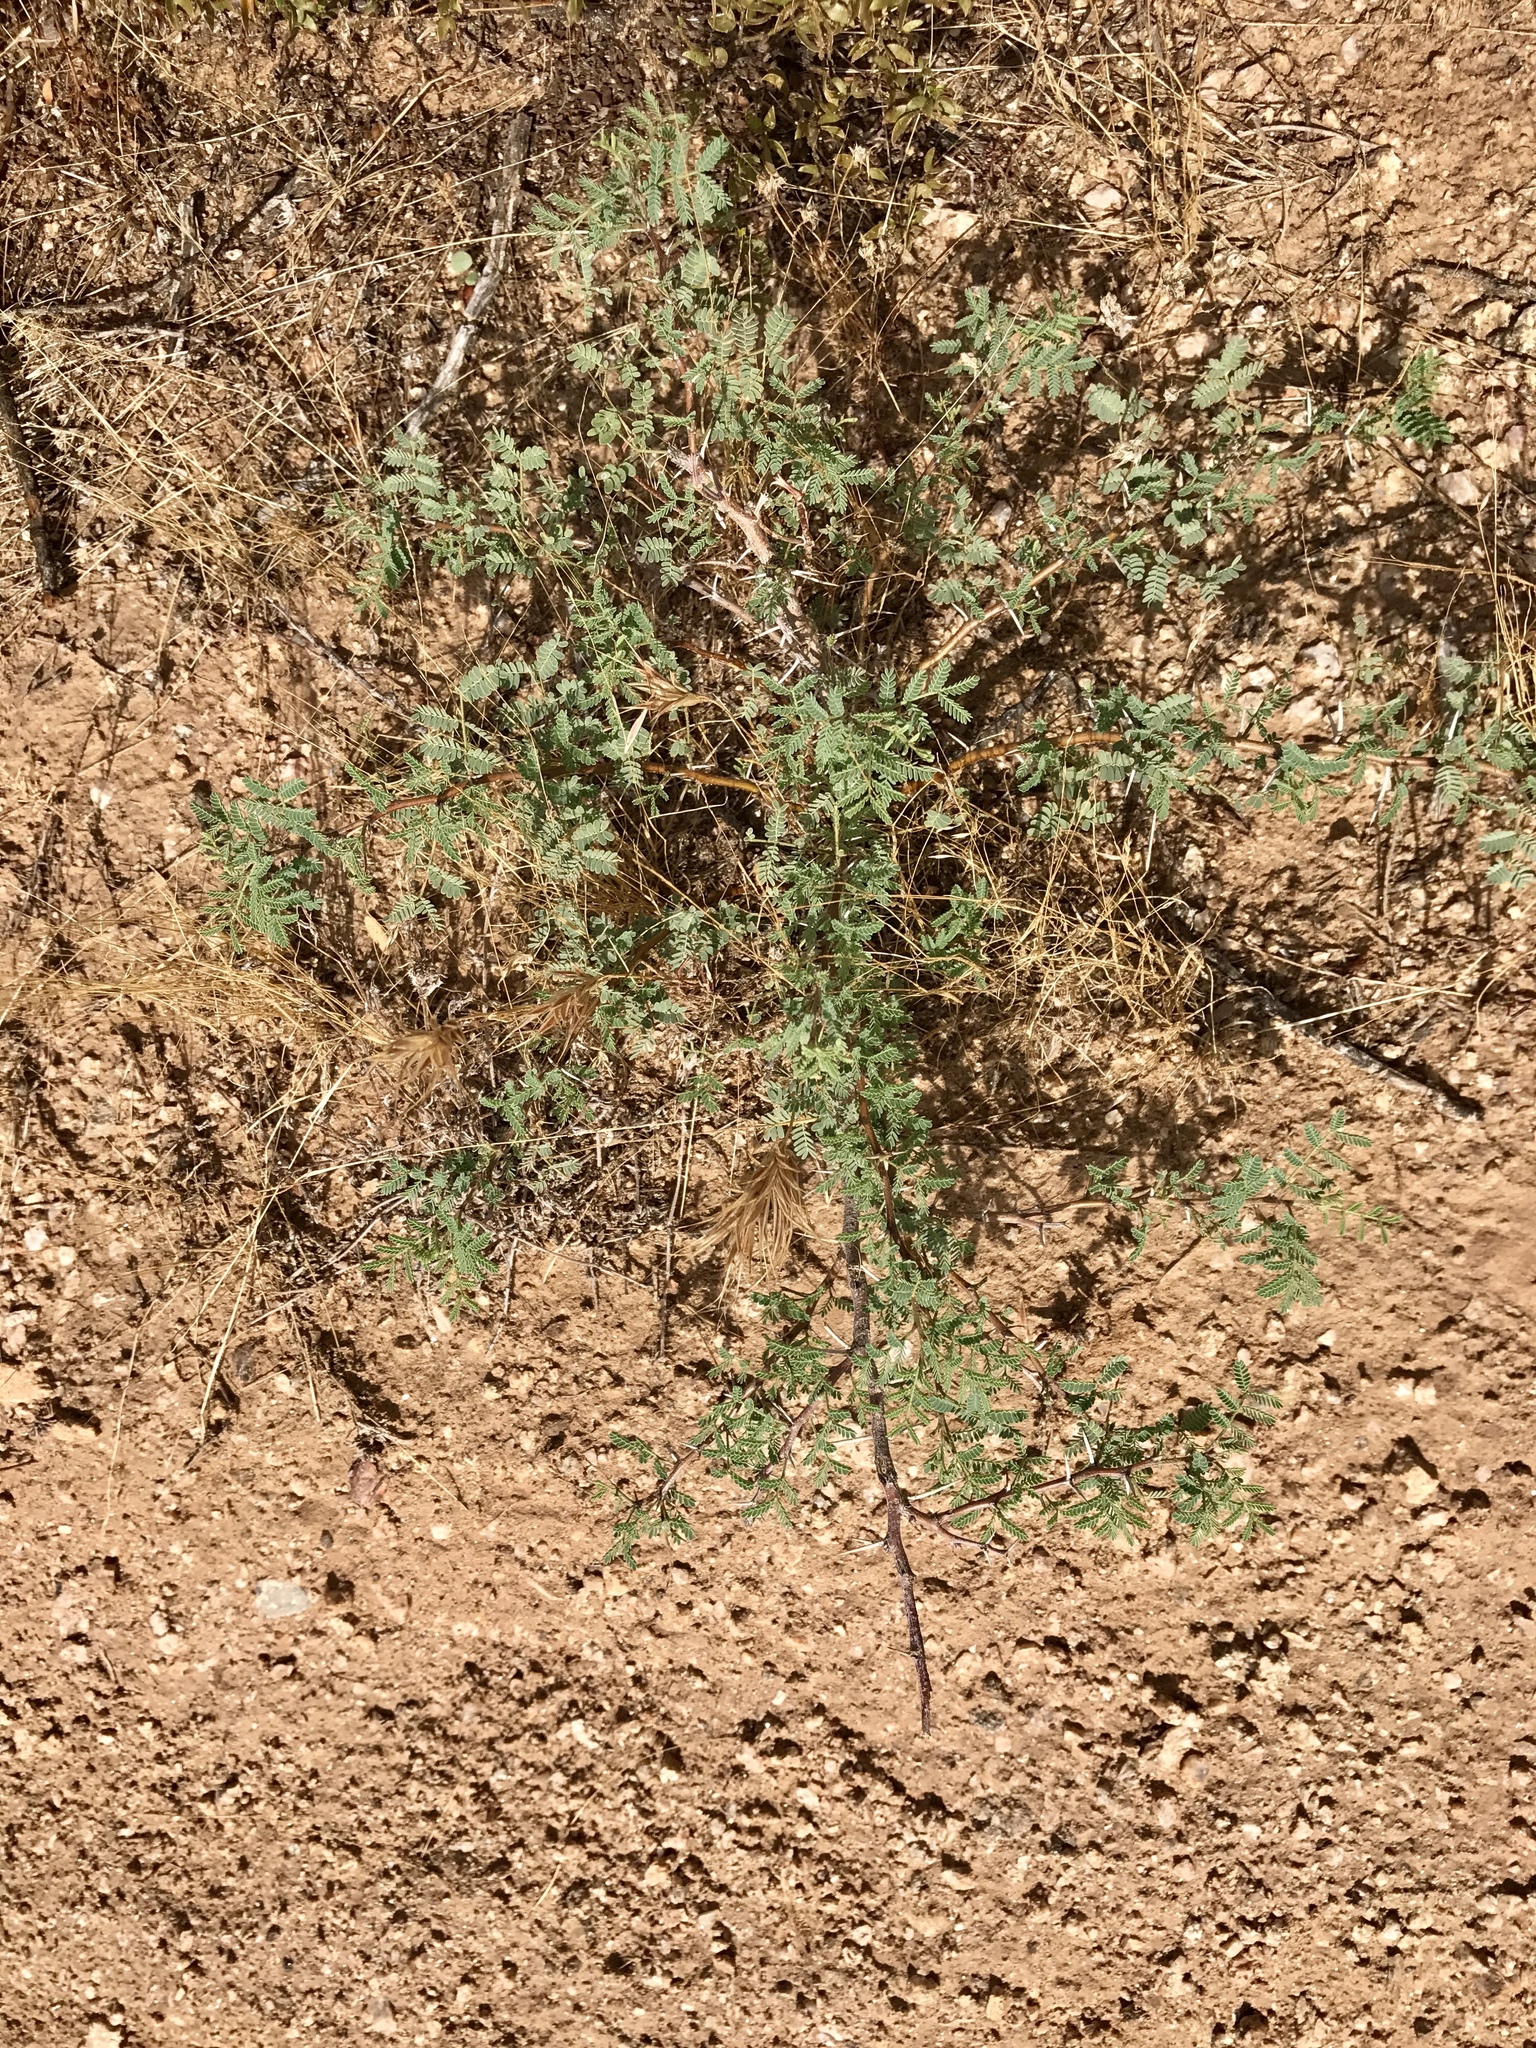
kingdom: Plantae
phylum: Tracheophyta
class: Magnoliopsida
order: Fabales
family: Fabaceae
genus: Vachellia
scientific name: Vachellia constricta
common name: Mescat acacia
